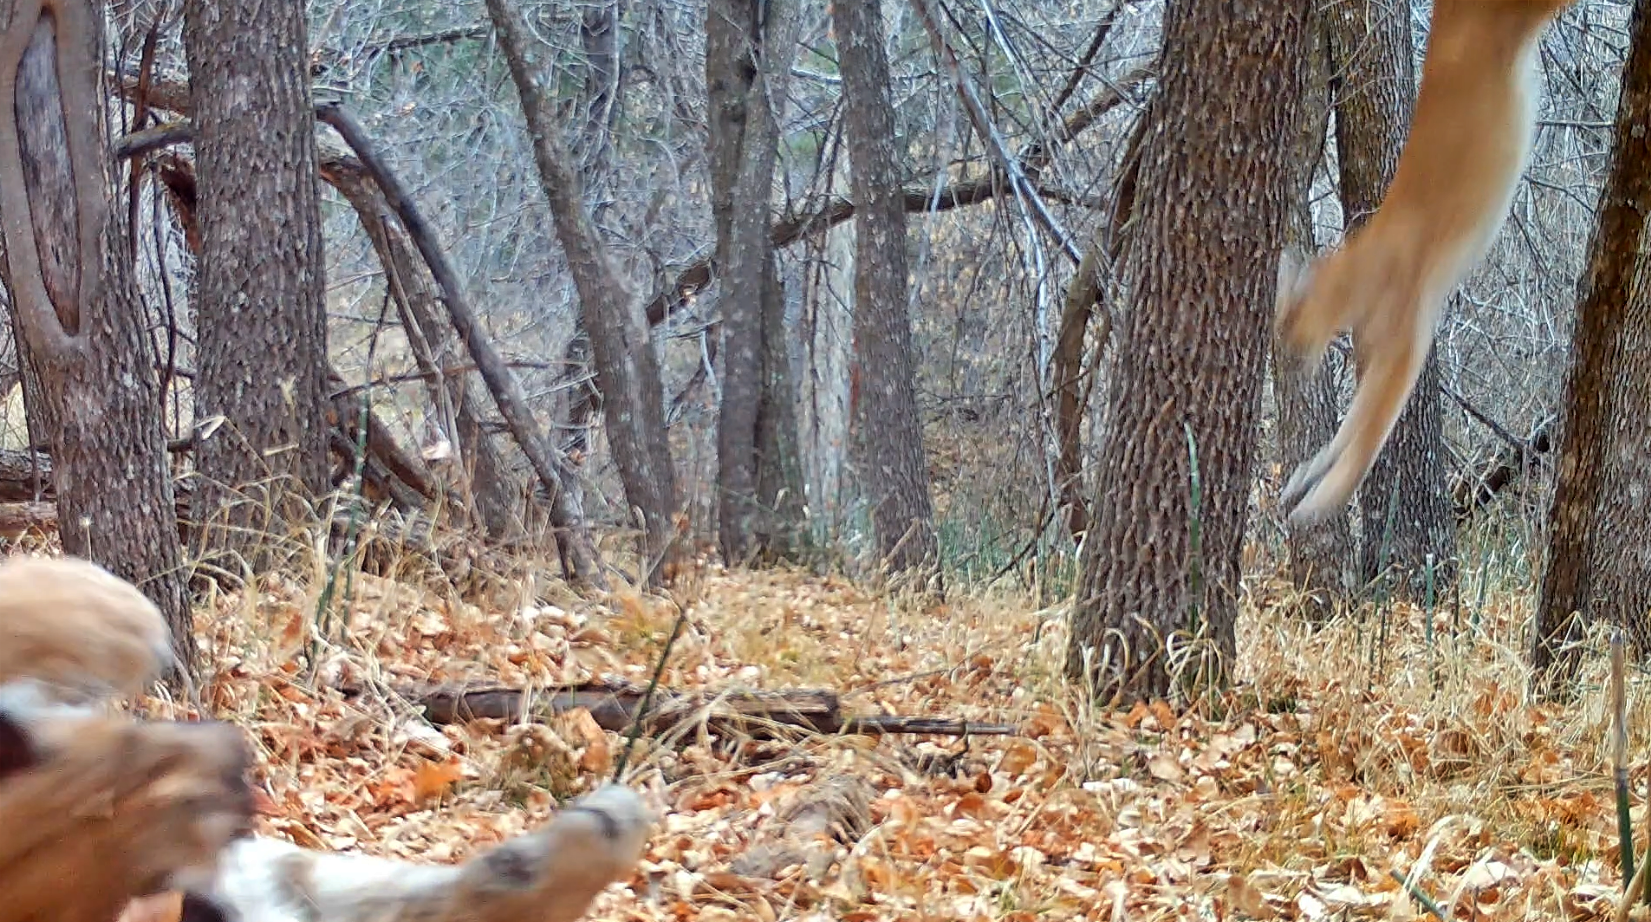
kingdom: Animalia
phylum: Chordata
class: Mammalia
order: Carnivora
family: Felidae
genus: Puma
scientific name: Puma concolor
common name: Puma
